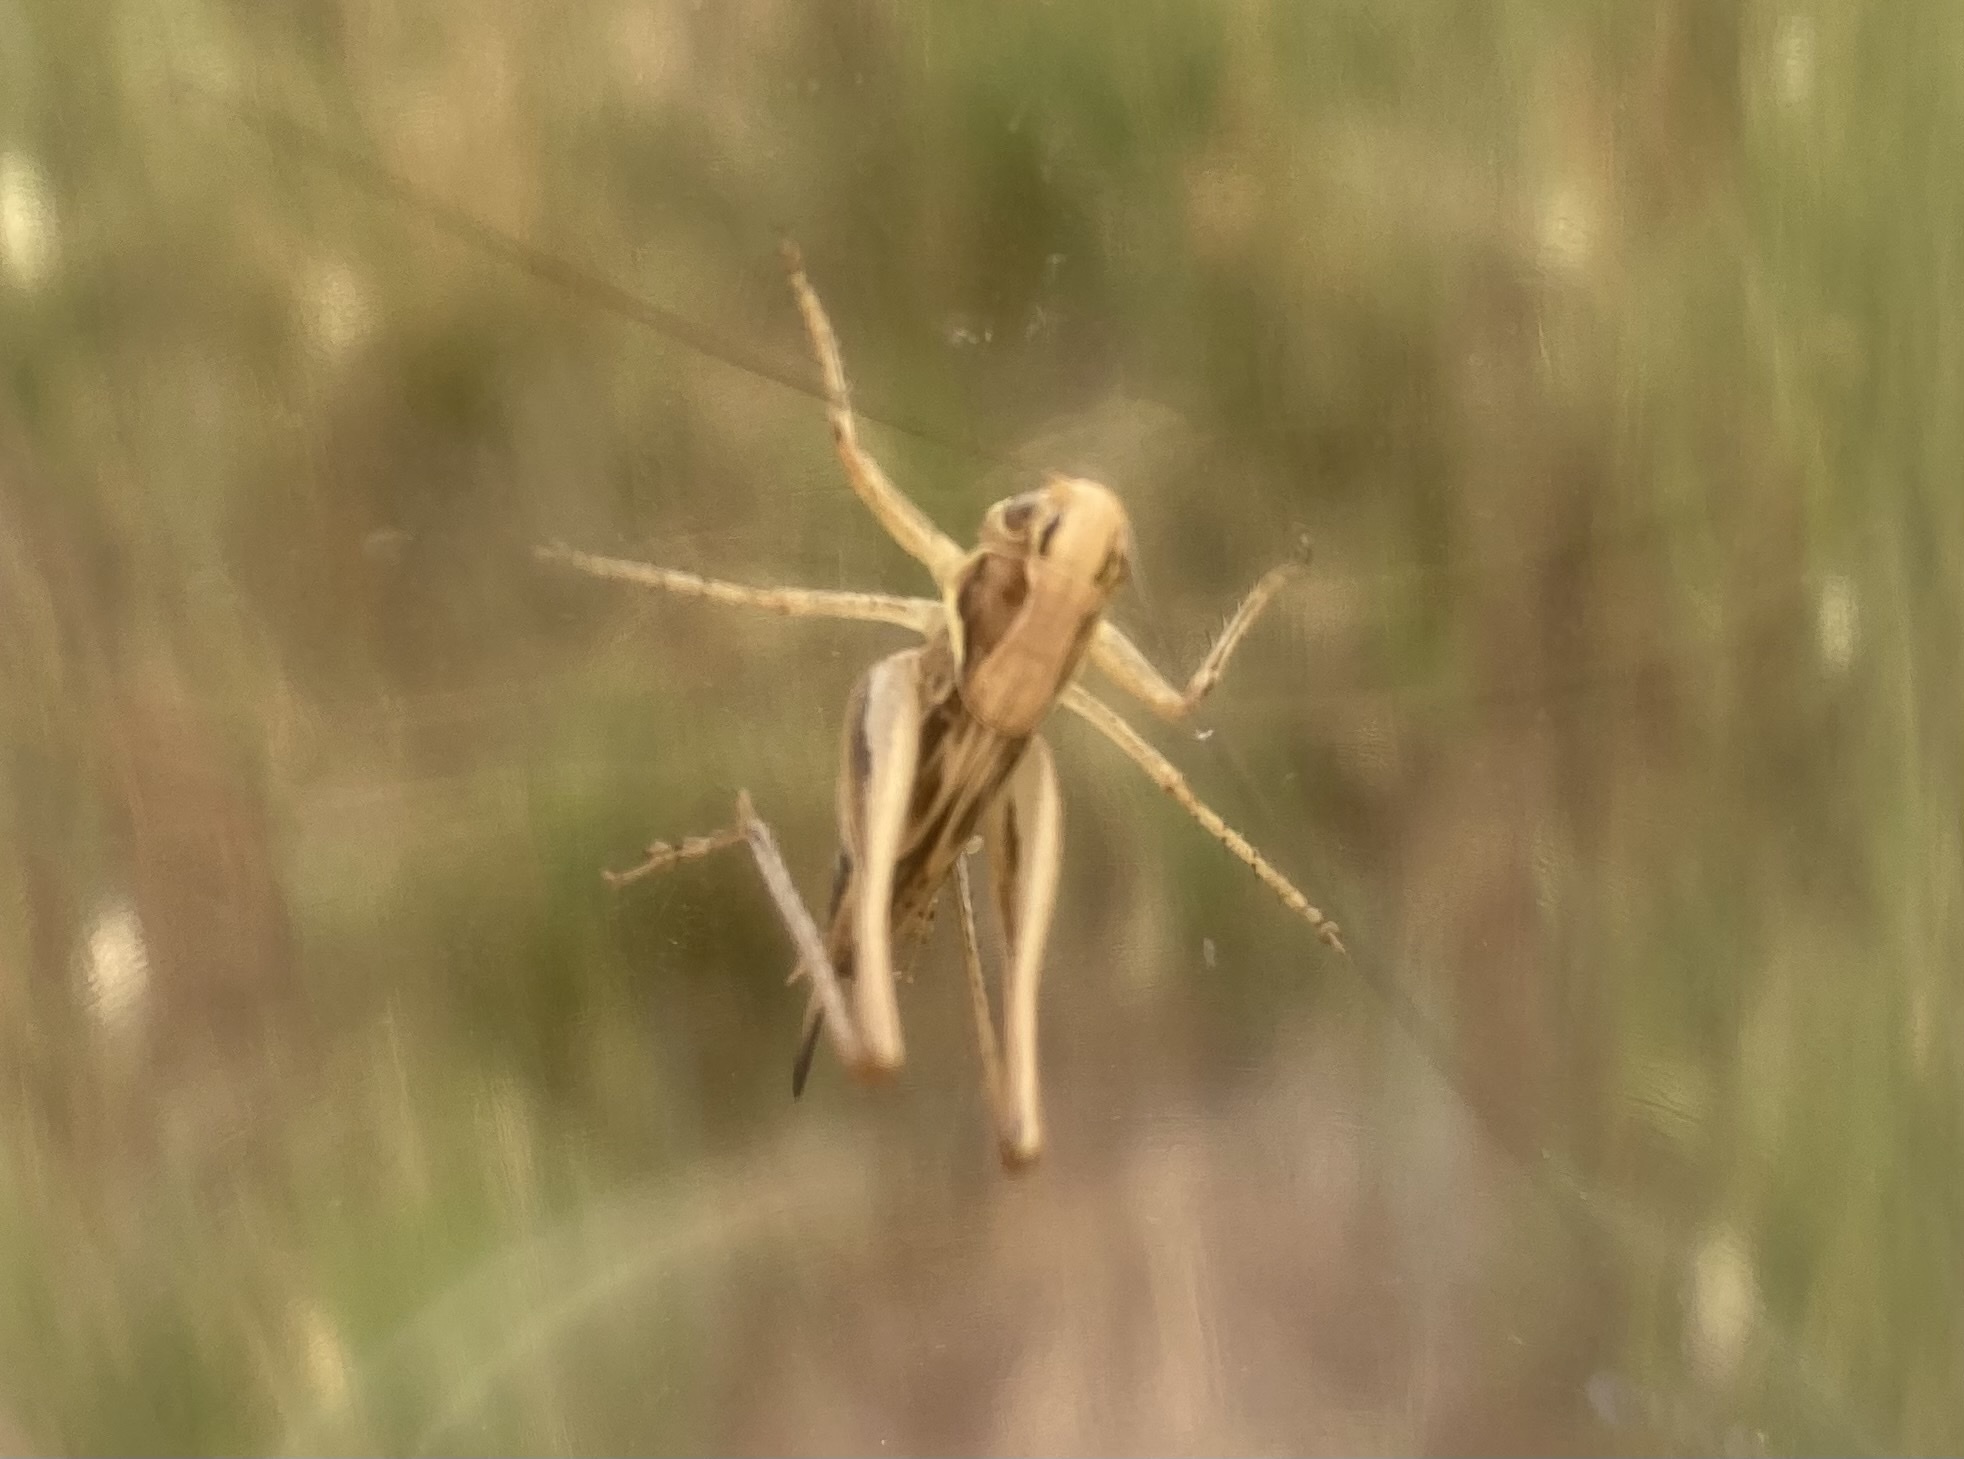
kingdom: Animalia
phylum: Arthropoda
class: Insecta
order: Orthoptera
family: Tettigoniidae
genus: Tessellana
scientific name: Tessellana tessellata
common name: Grasshopper
